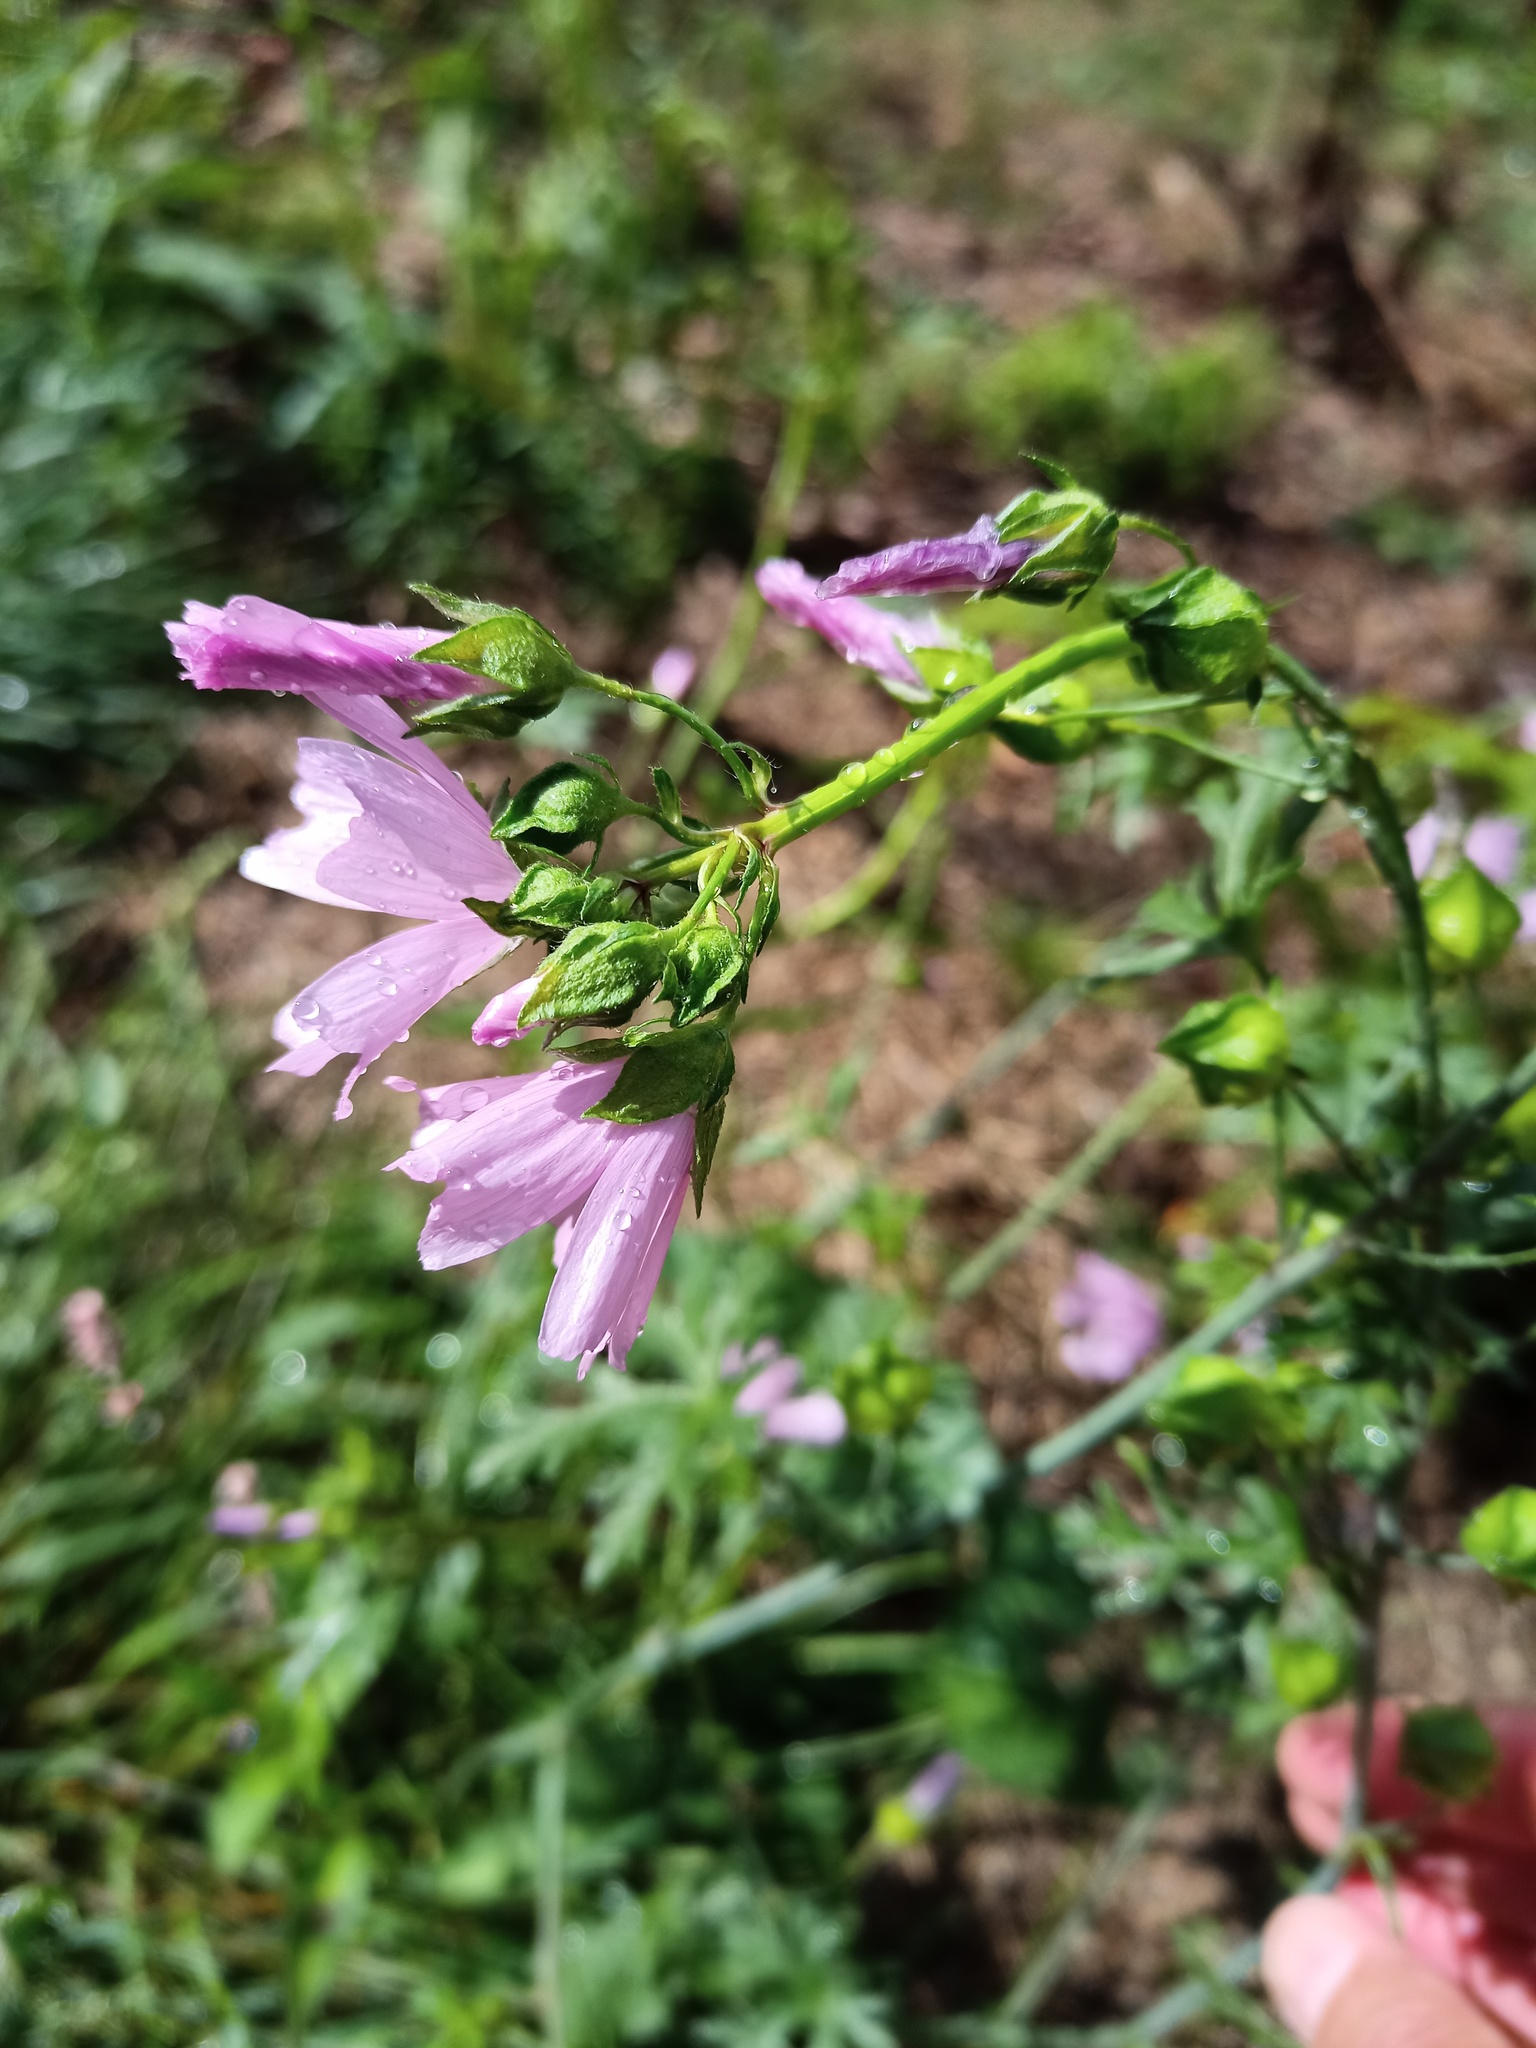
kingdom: Plantae
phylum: Tracheophyta
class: Magnoliopsida
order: Malvales
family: Malvaceae
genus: Malva
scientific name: Malva moschata
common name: Musk mallow
